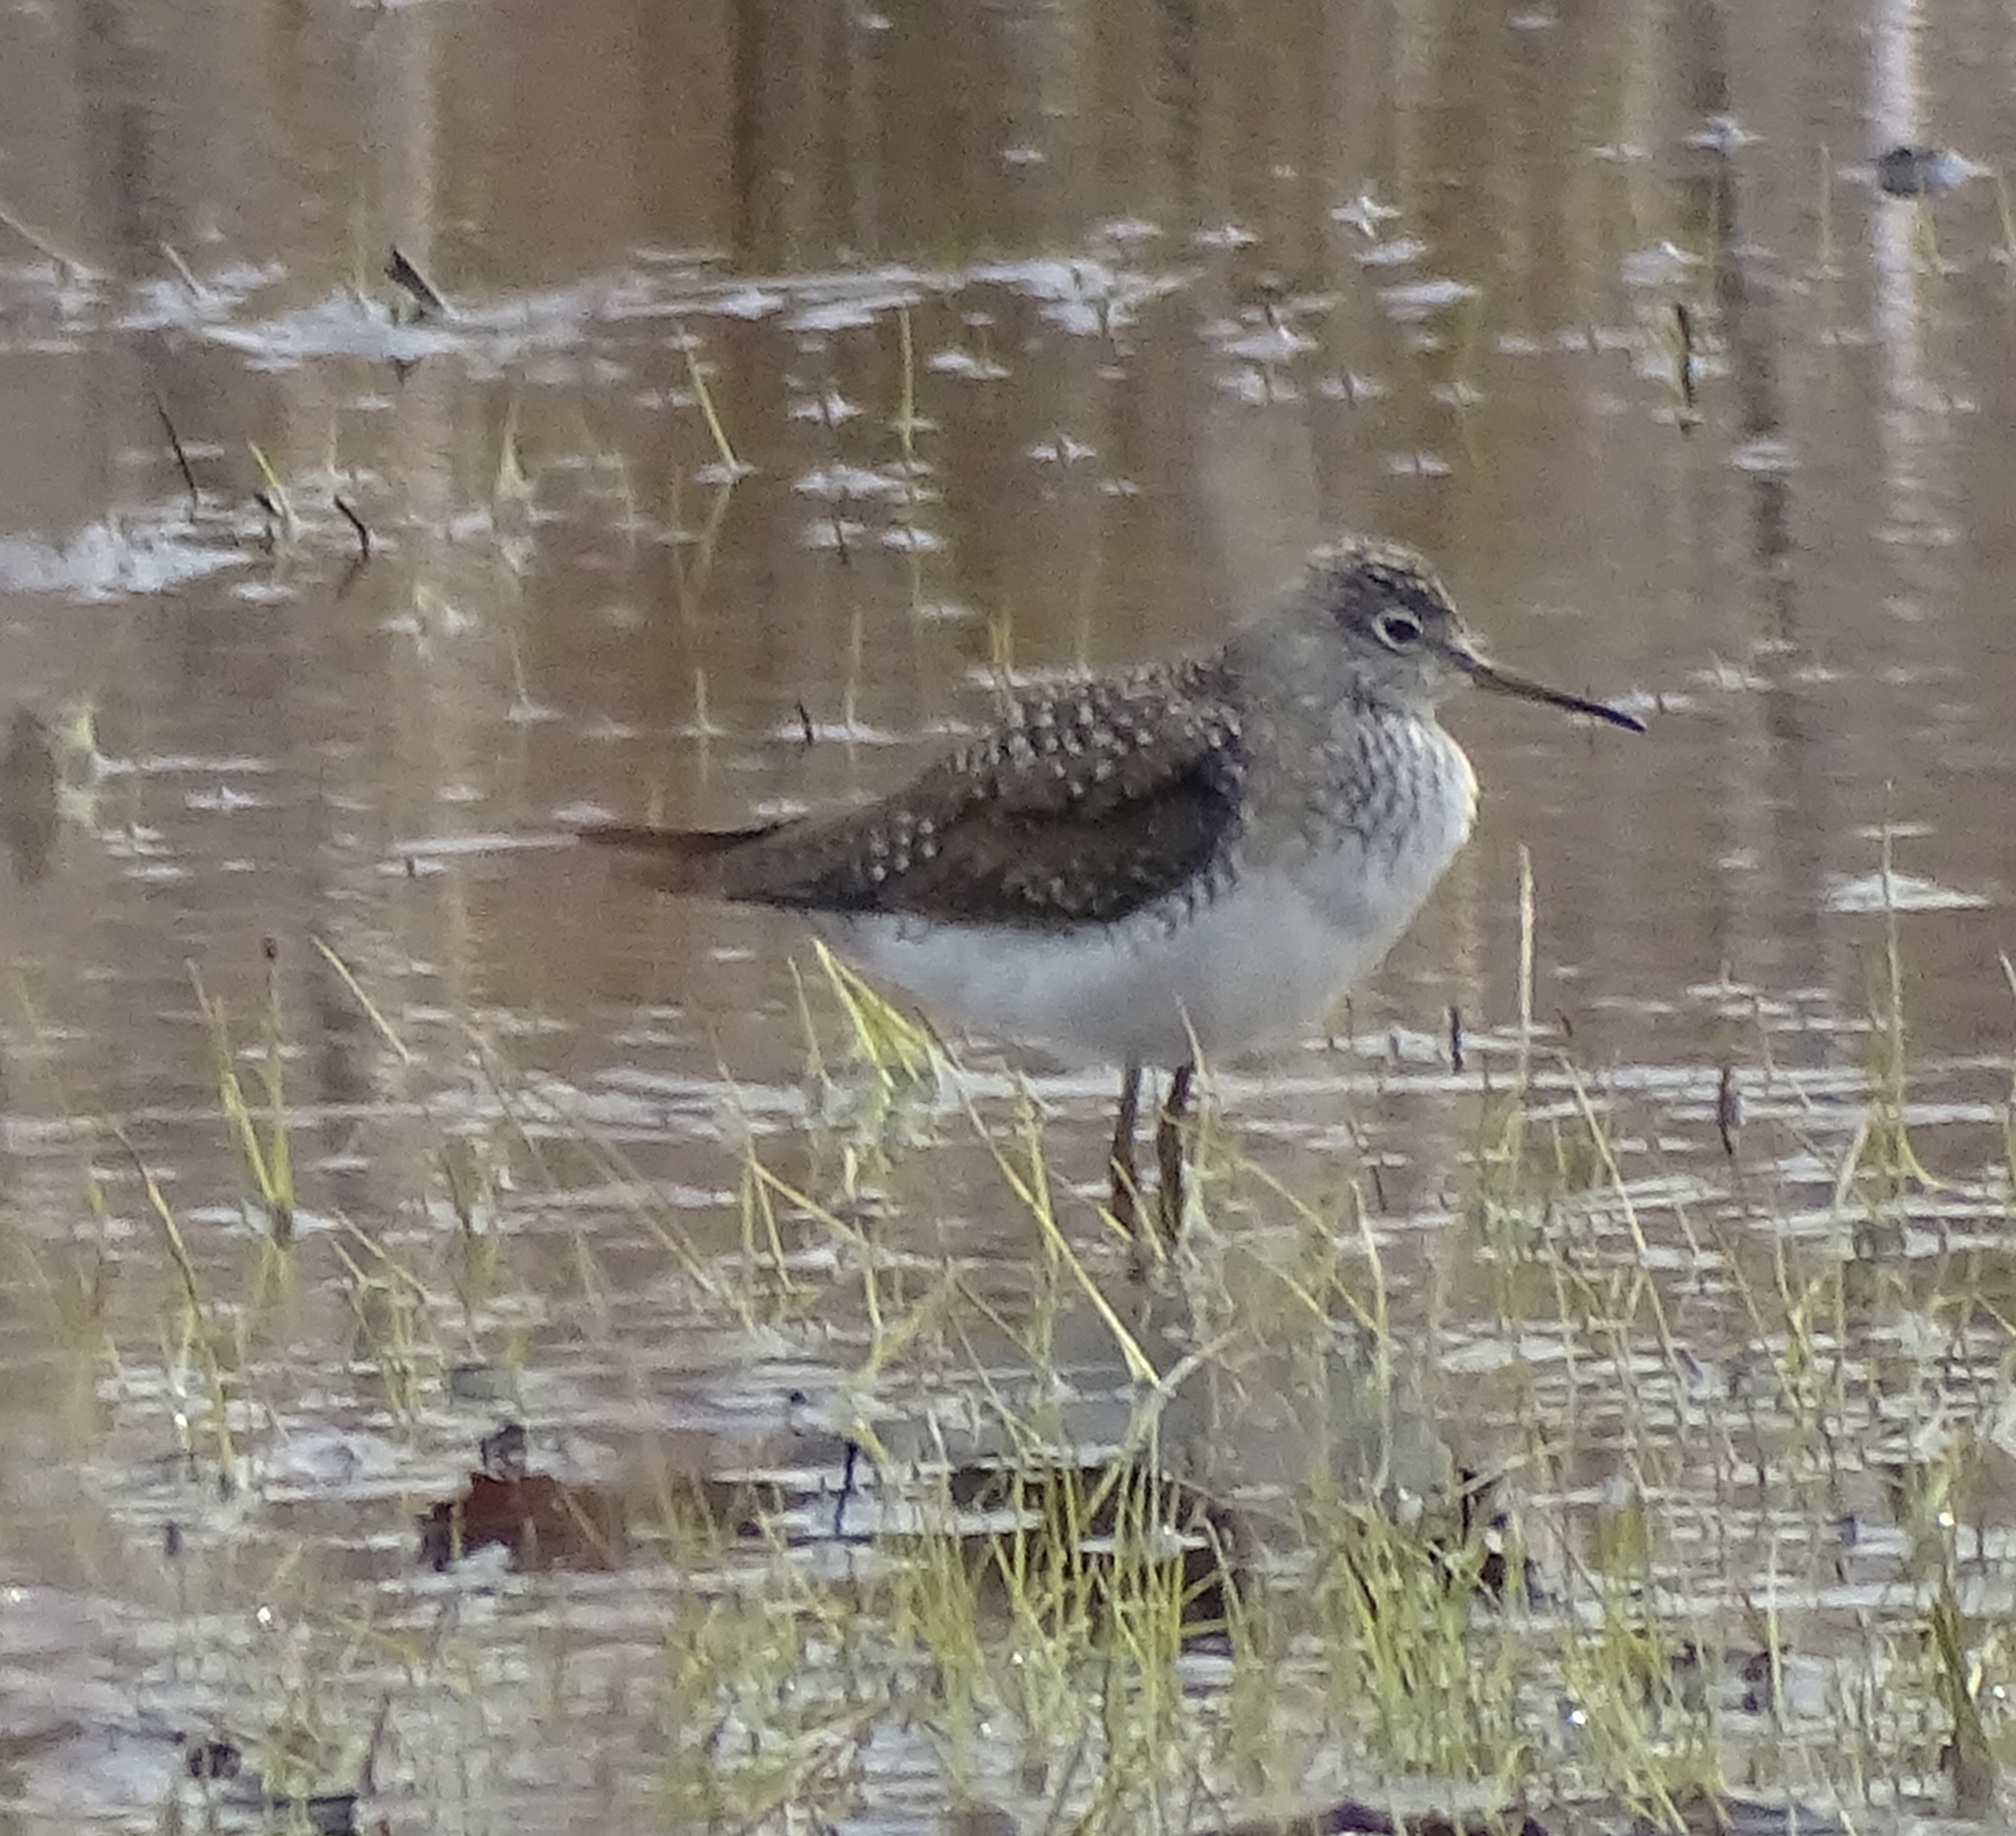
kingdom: Animalia
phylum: Chordata
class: Aves
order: Charadriiformes
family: Scolopacidae
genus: Tringa
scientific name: Tringa solitaria
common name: Solitary sandpiper
